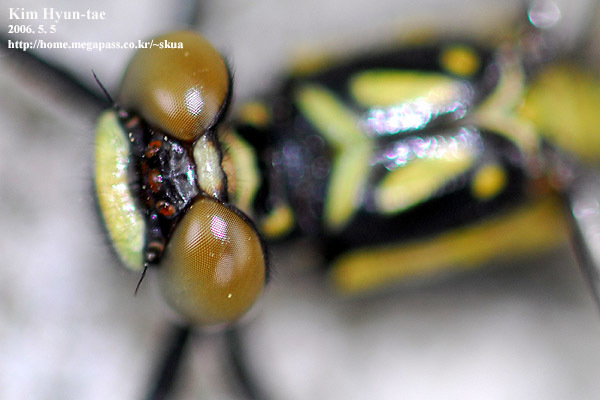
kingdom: Animalia
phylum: Arthropoda
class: Insecta
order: Odonata
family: Gomphidae
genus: Davidius
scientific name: Davidius lunatus
